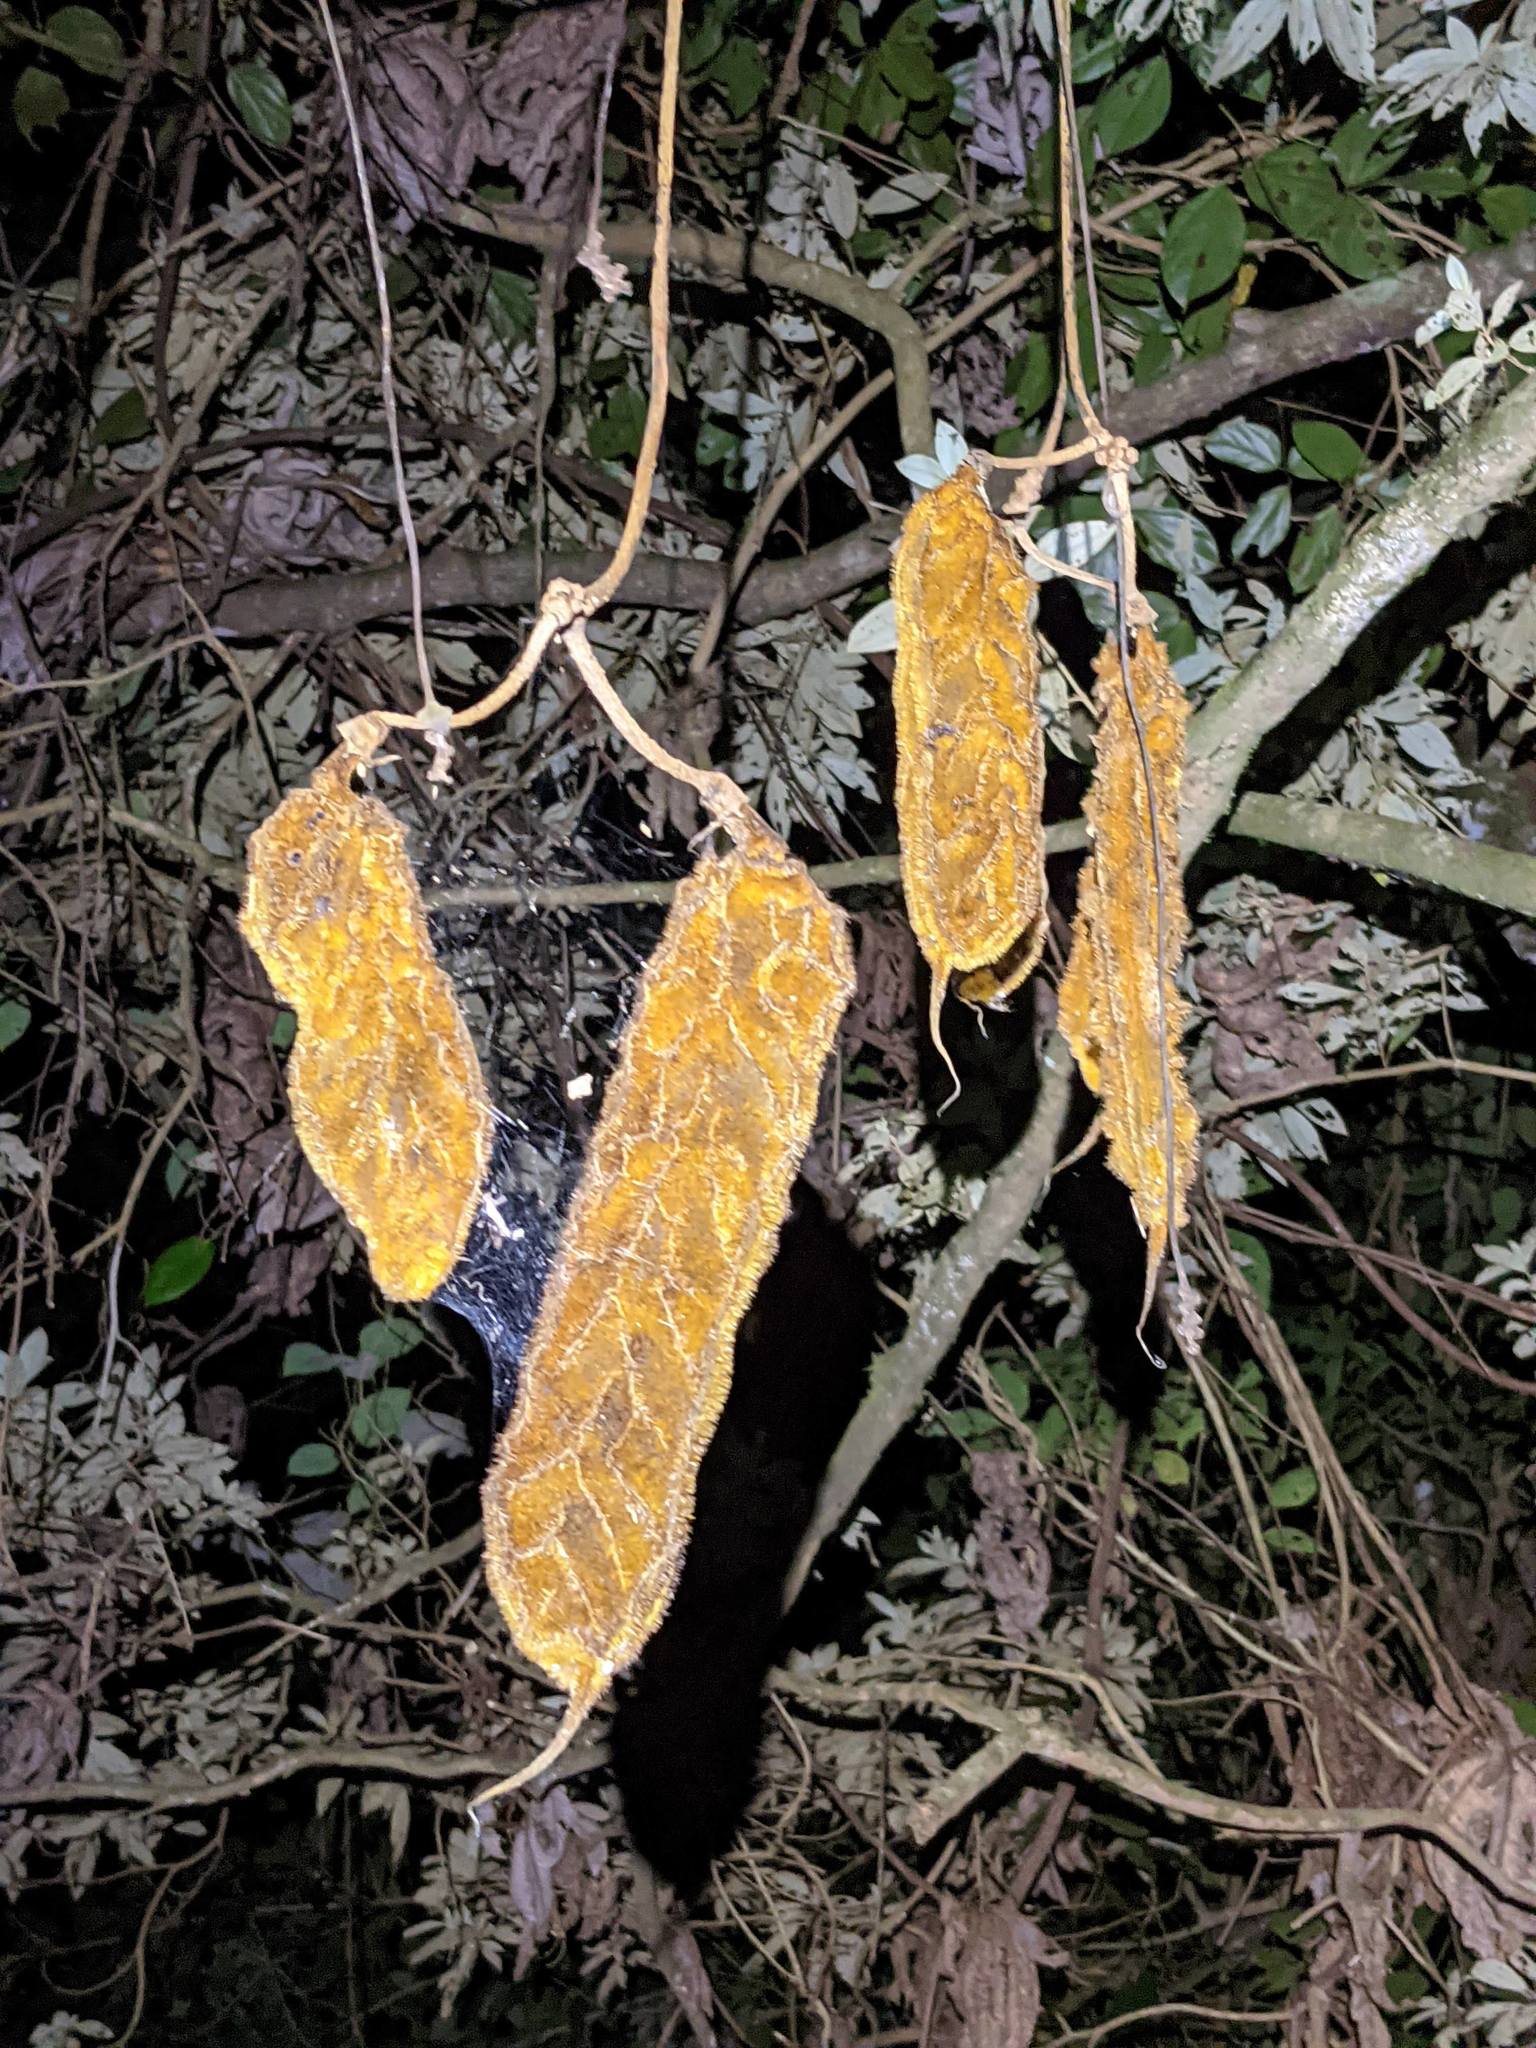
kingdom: Plantae
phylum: Tracheophyta
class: Magnoliopsida
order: Fabales
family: Fabaceae
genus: Mucuna
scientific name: Mucuna monticola
